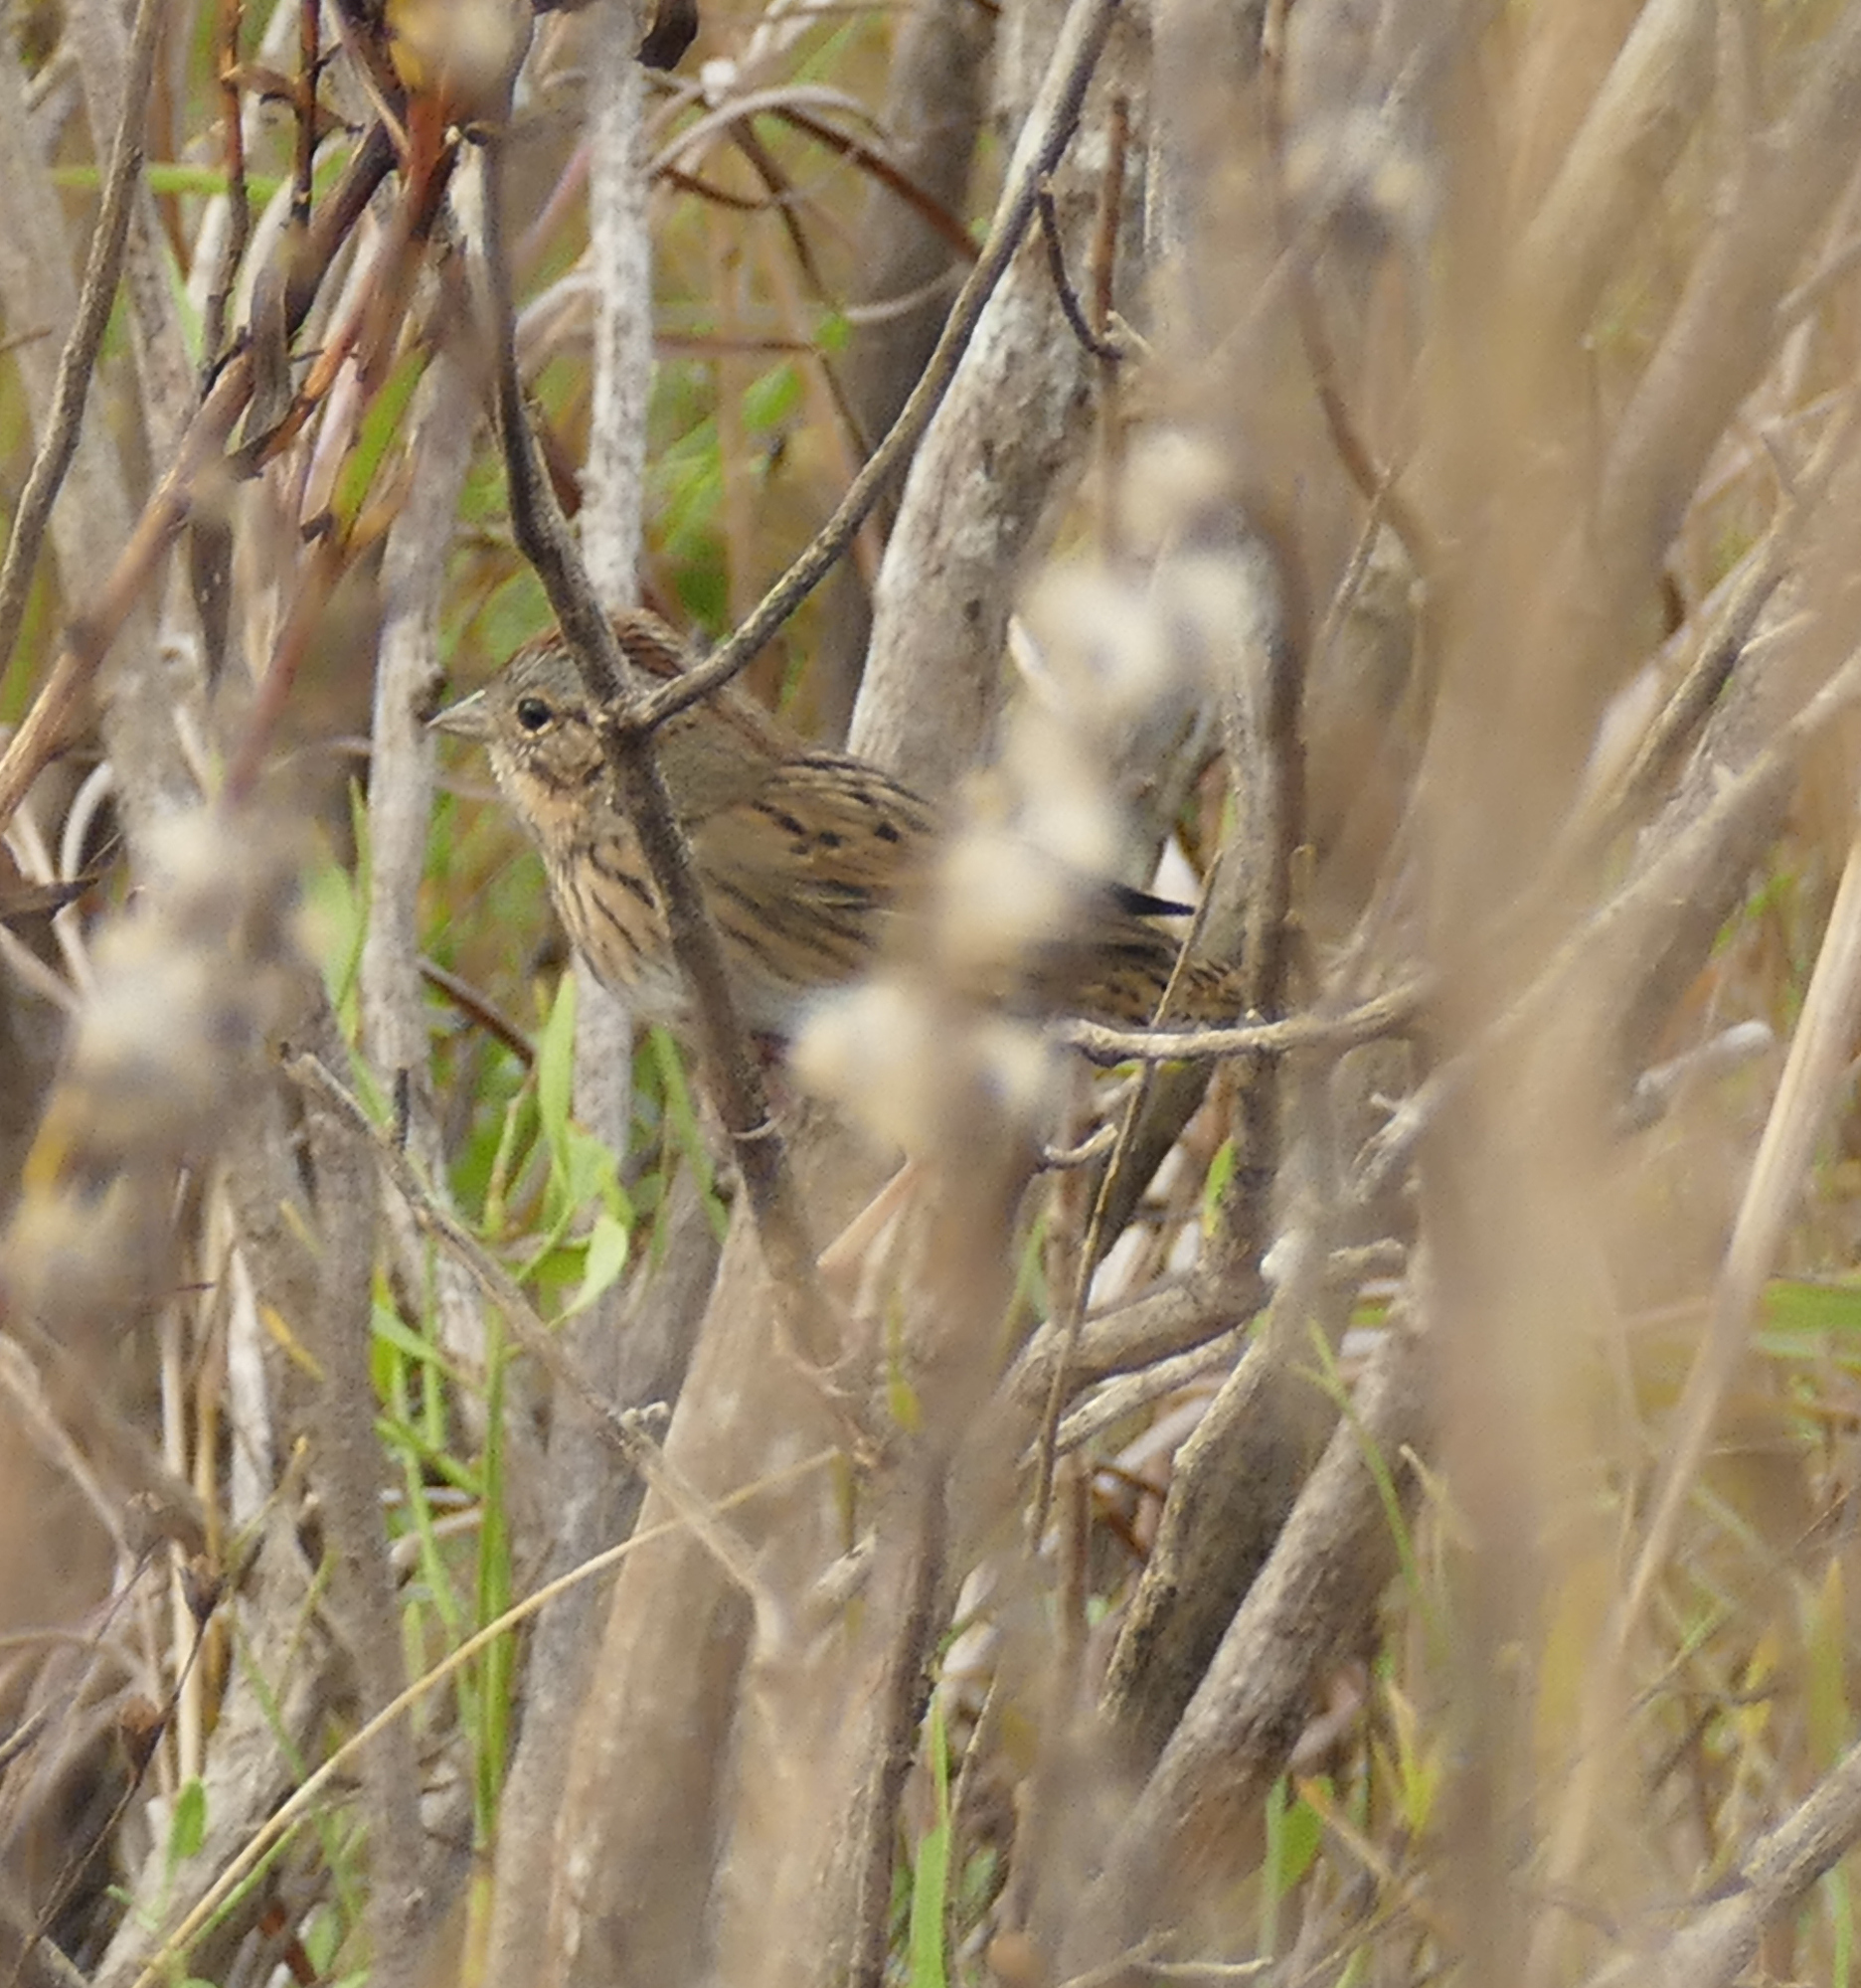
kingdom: Animalia
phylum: Chordata
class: Aves
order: Passeriformes
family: Passerellidae
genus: Melospiza
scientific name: Melospiza lincolnii
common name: Lincoln's sparrow
